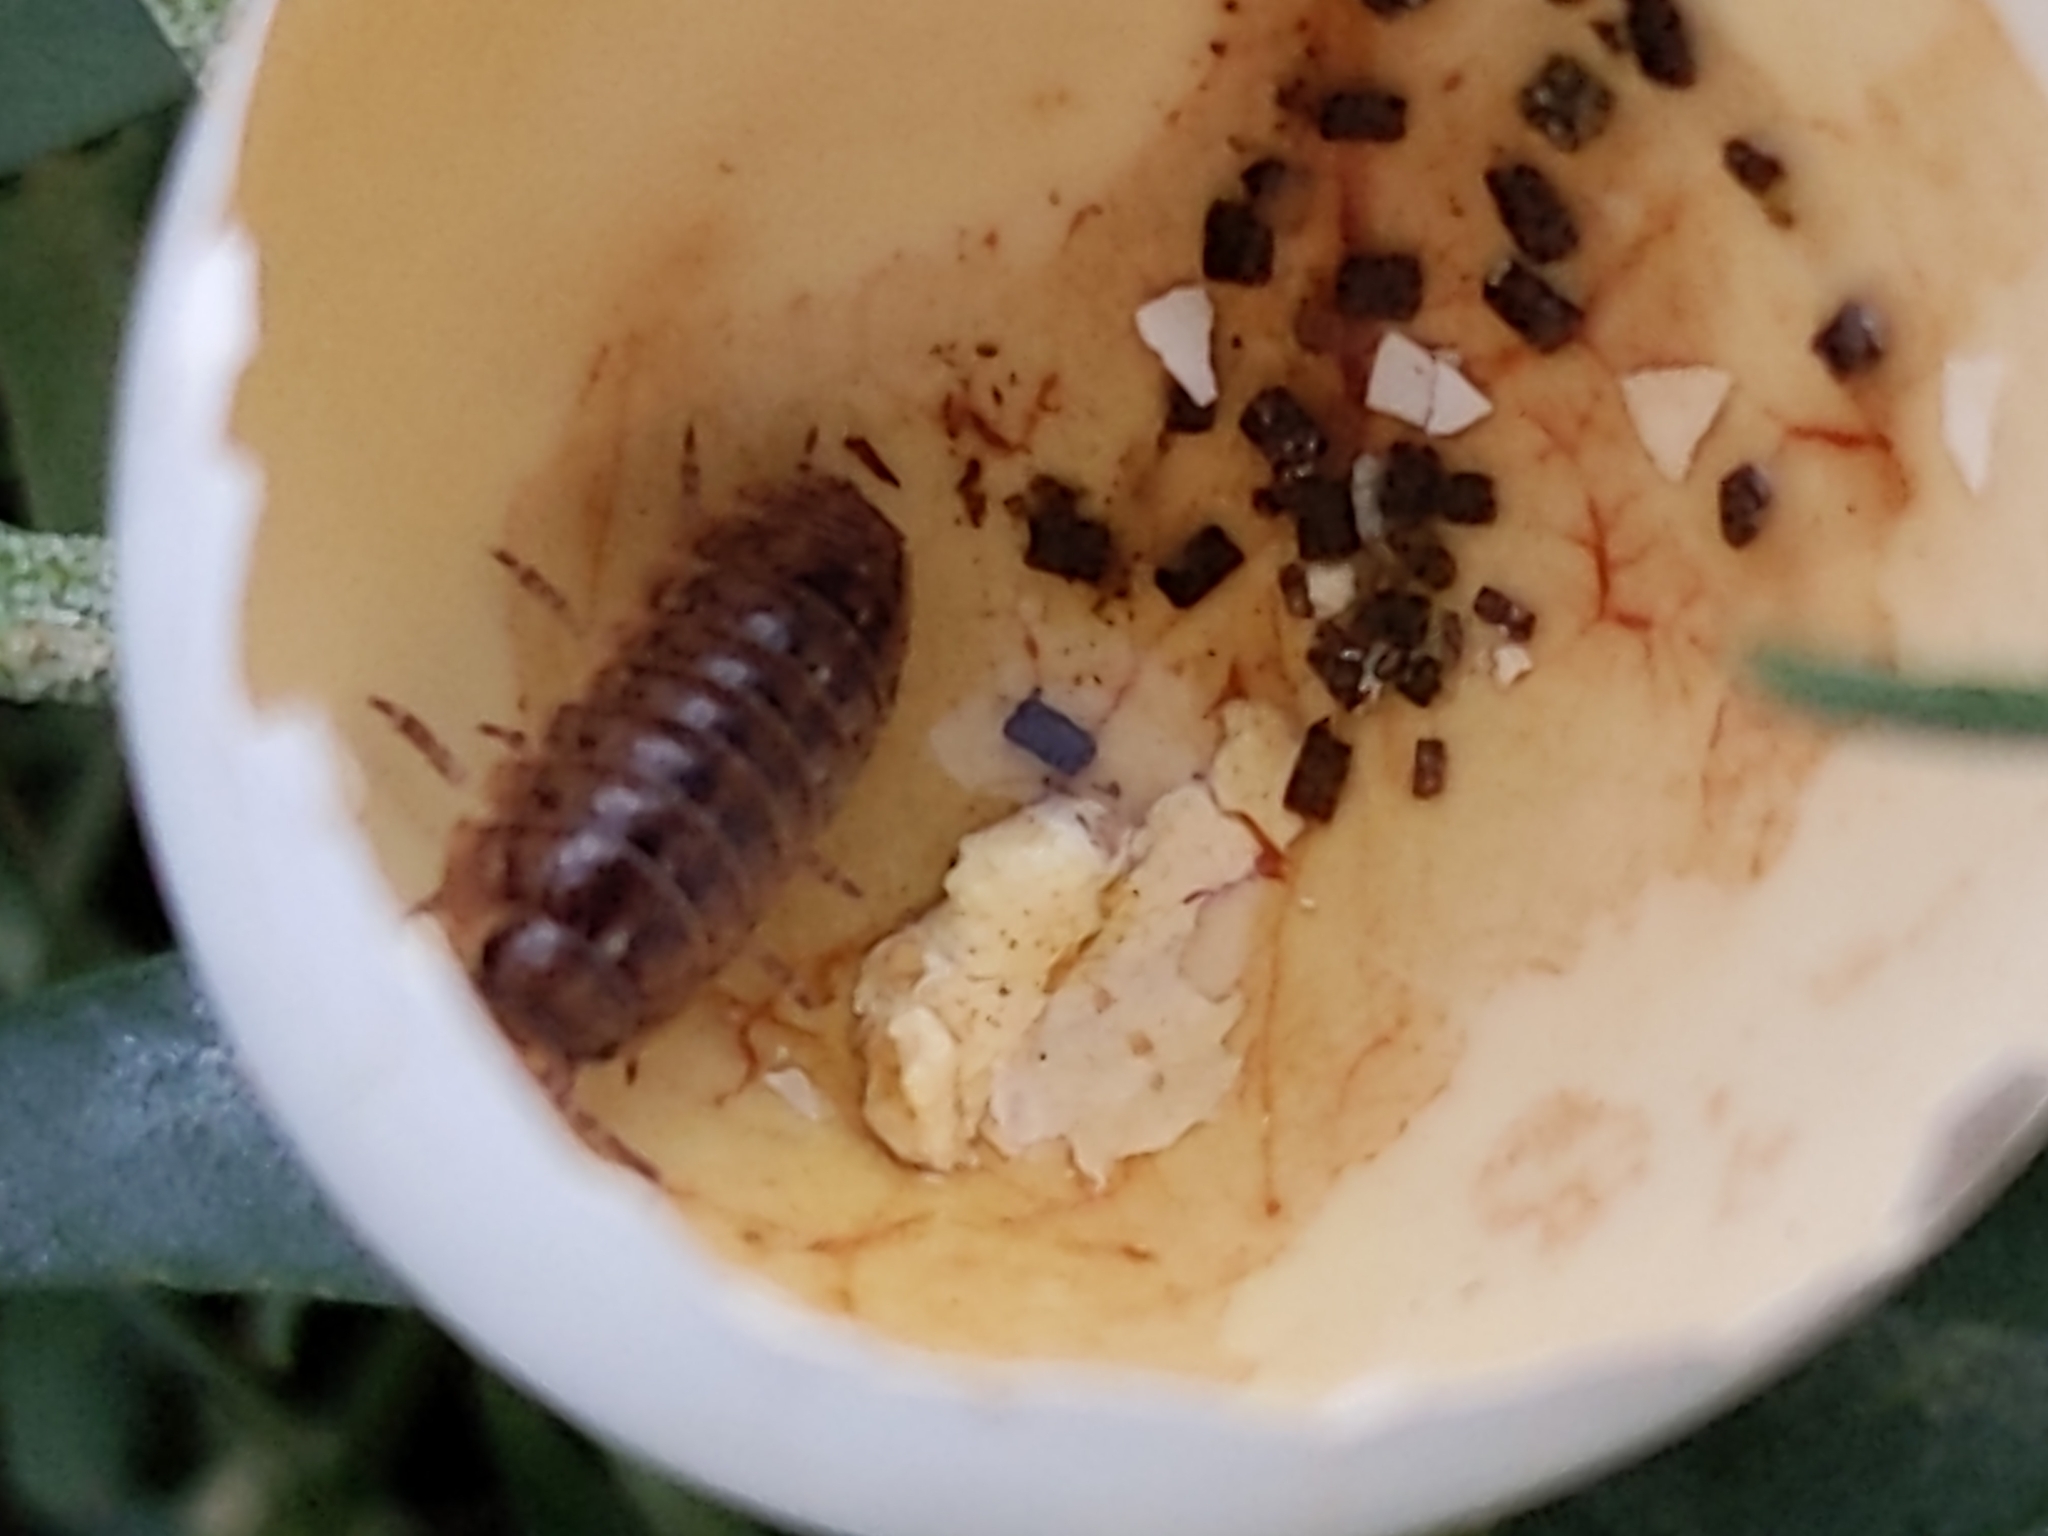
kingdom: Animalia
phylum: Arthropoda
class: Malacostraca
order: Isopoda
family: Armadillidiidae
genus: Armadillidium
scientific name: Armadillidium vulgare
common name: Common pill woodlouse
